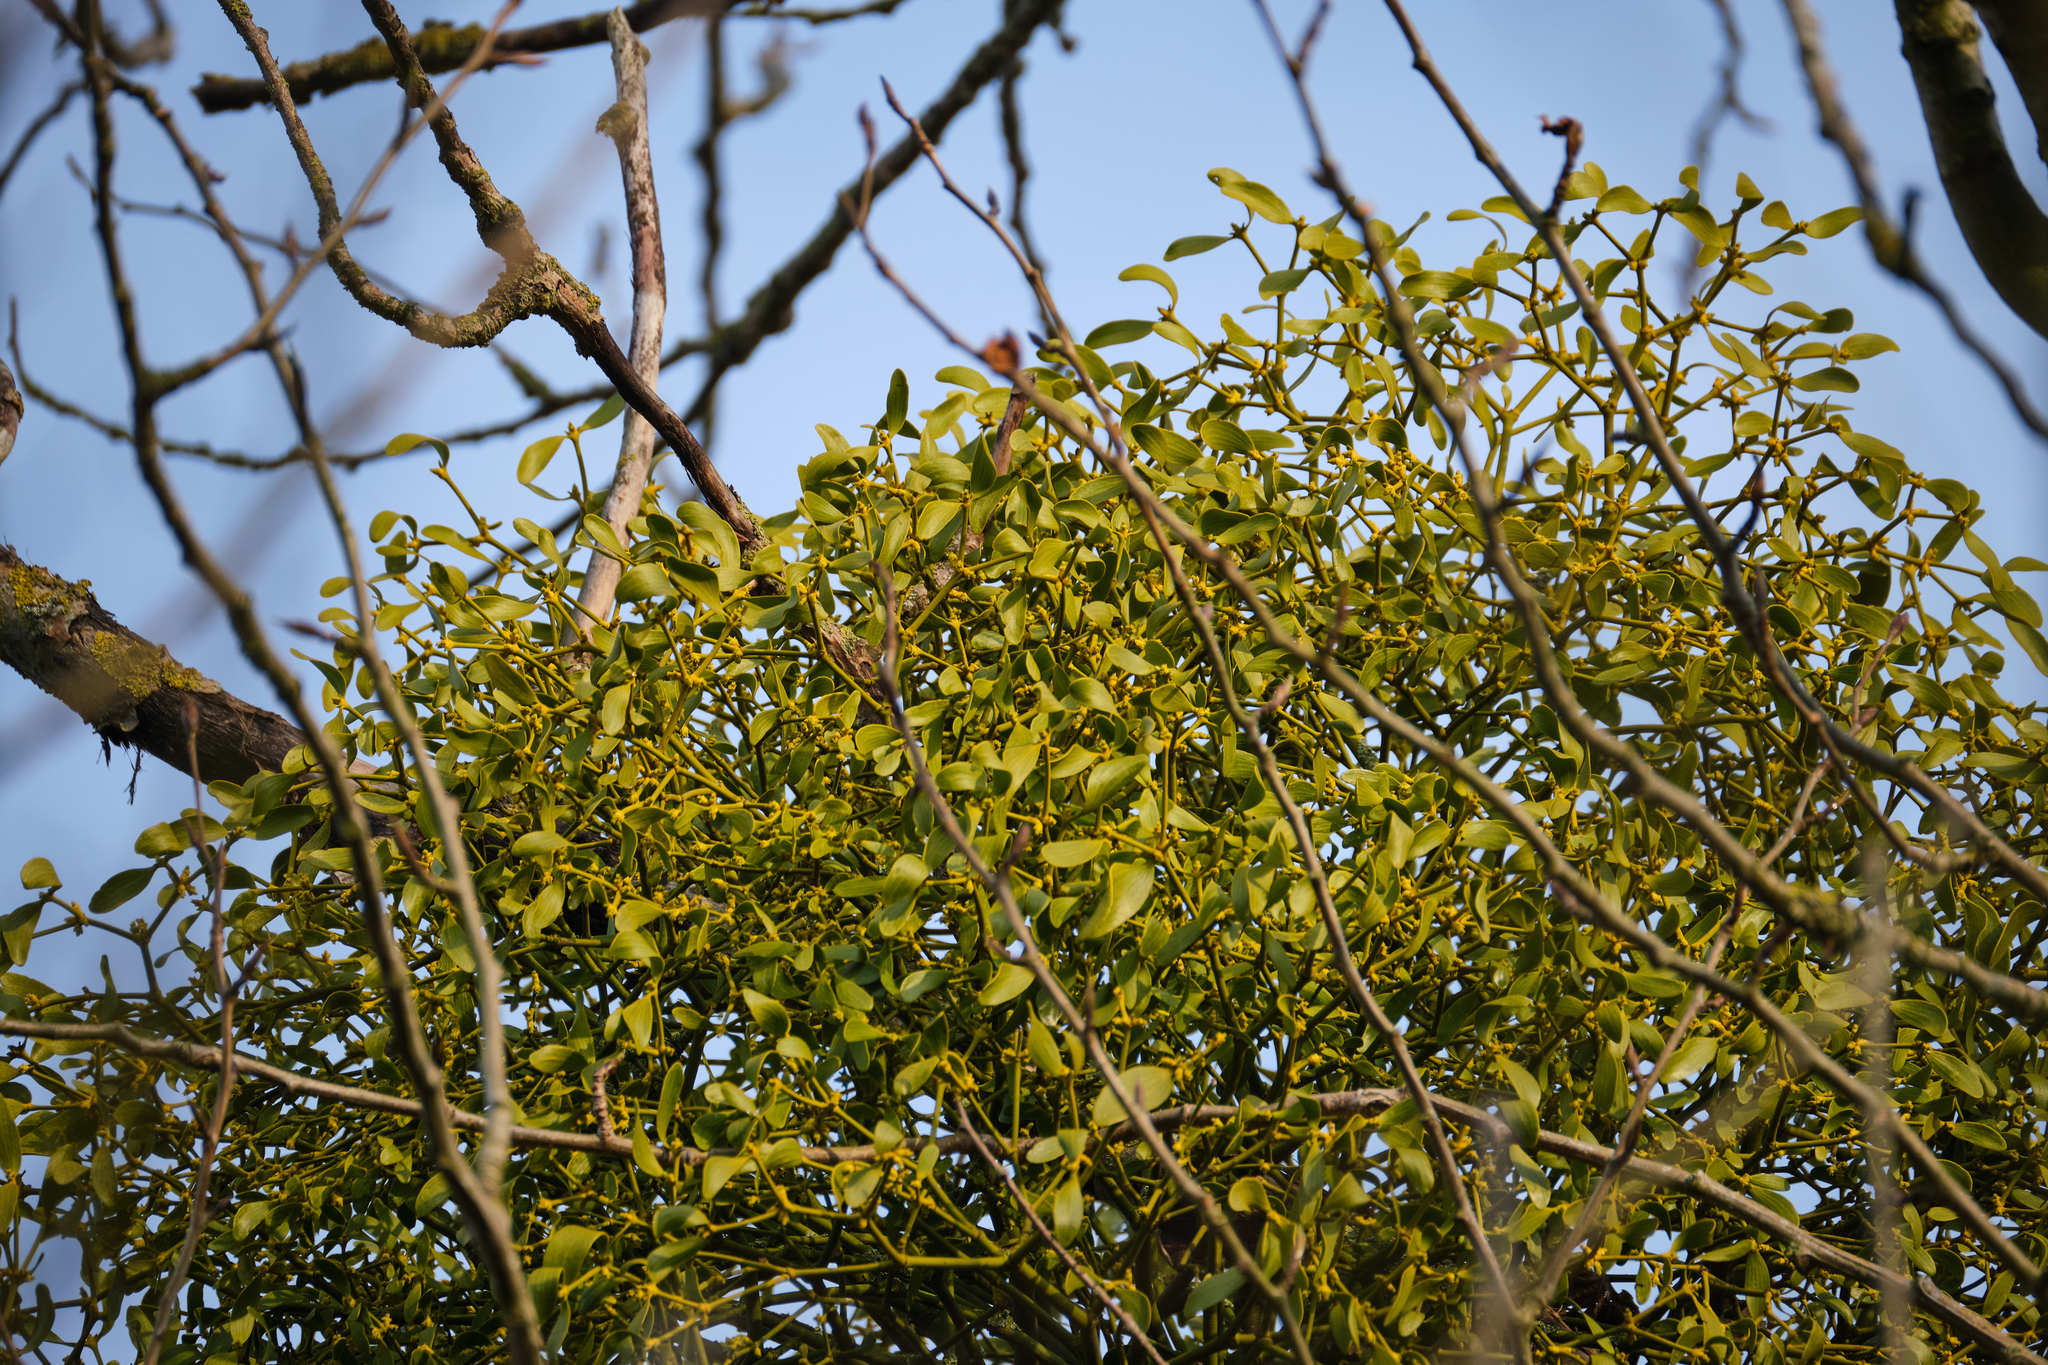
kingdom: Plantae
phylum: Tracheophyta
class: Magnoliopsida
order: Santalales
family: Viscaceae
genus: Viscum
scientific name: Viscum album
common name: Mistletoe
